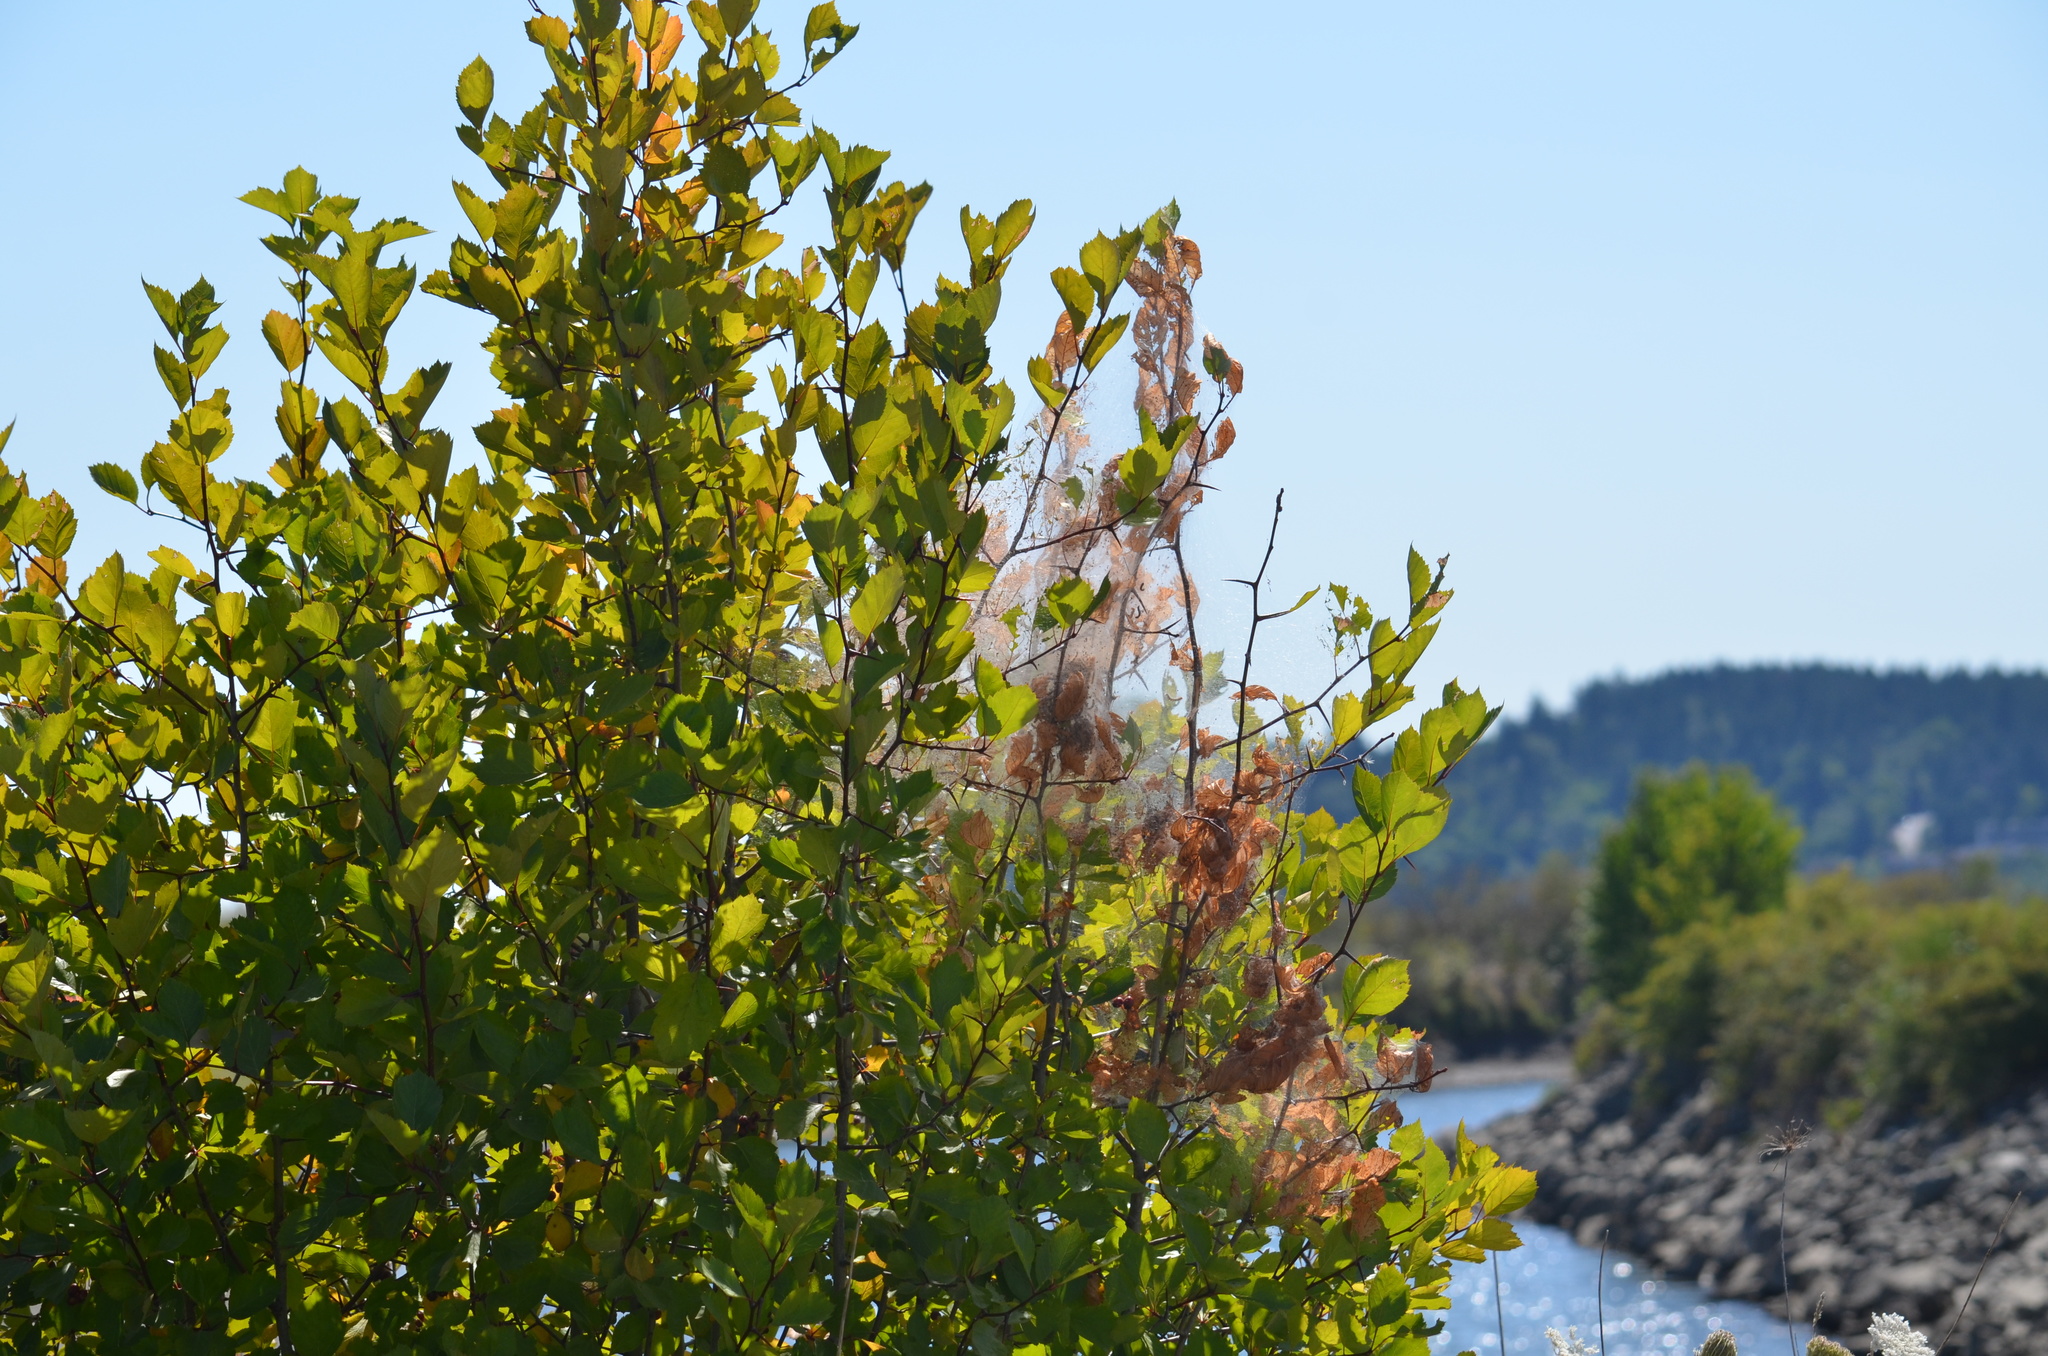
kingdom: Animalia
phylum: Arthropoda
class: Insecta
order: Lepidoptera
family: Erebidae
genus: Hyphantria
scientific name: Hyphantria cunea
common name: American white moth
